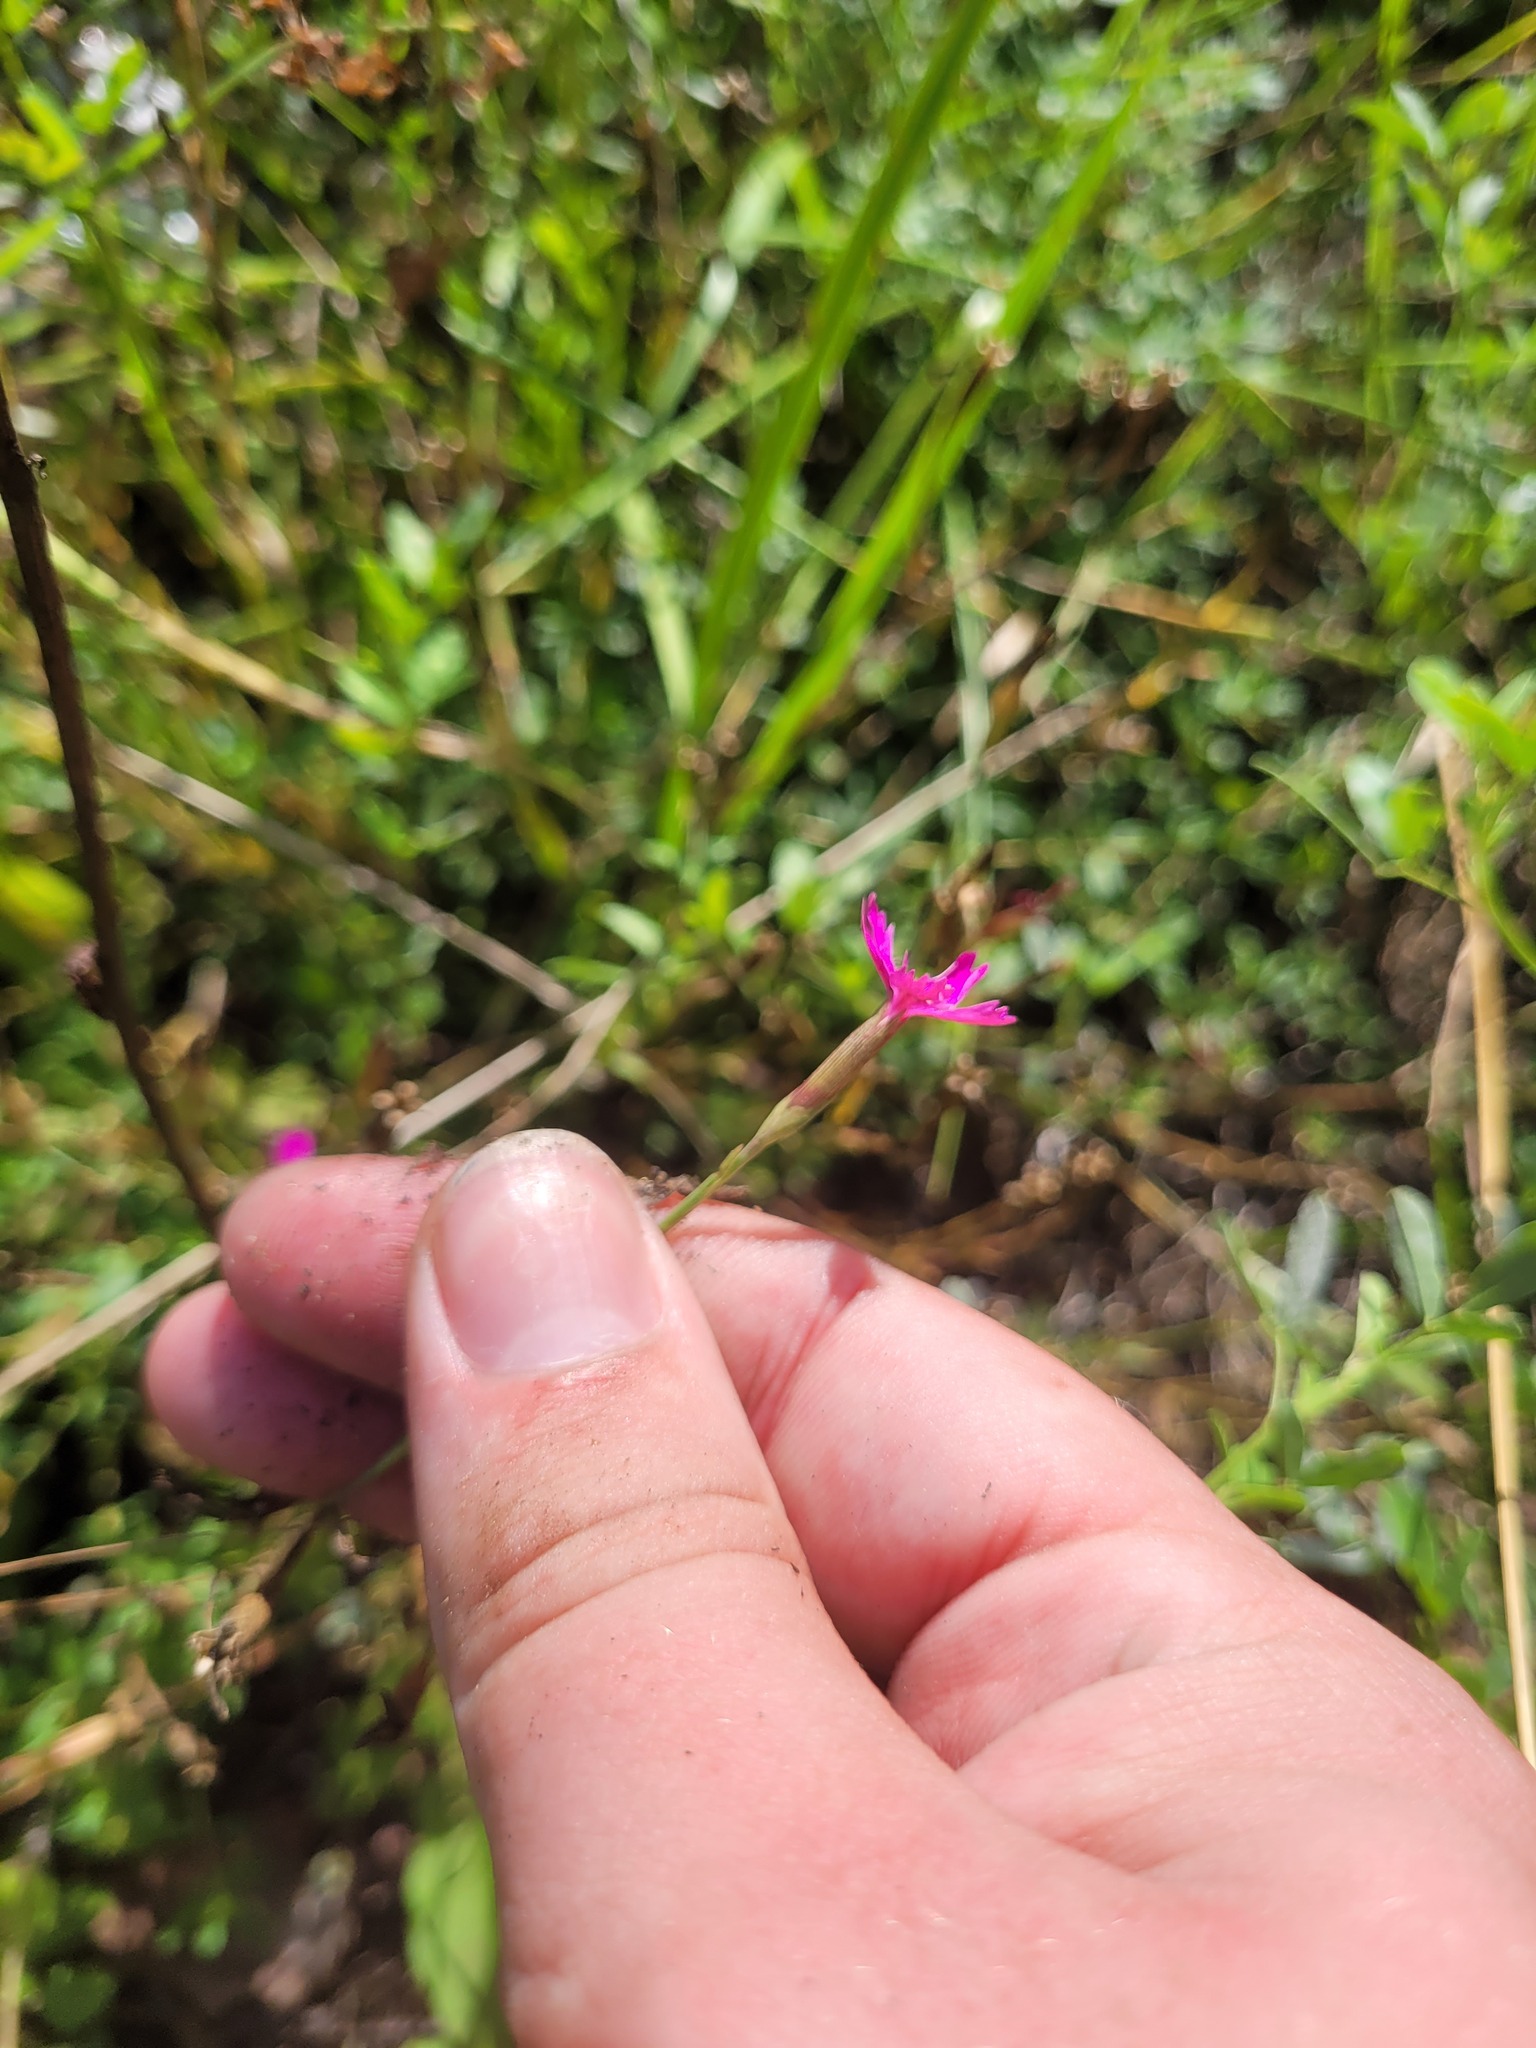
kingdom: Plantae
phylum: Tracheophyta
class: Magnoliopsida
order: Caryophyllales
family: Caryophyllaceae
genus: Dianthus
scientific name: Dianthus deltoides
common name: Maiden pink
